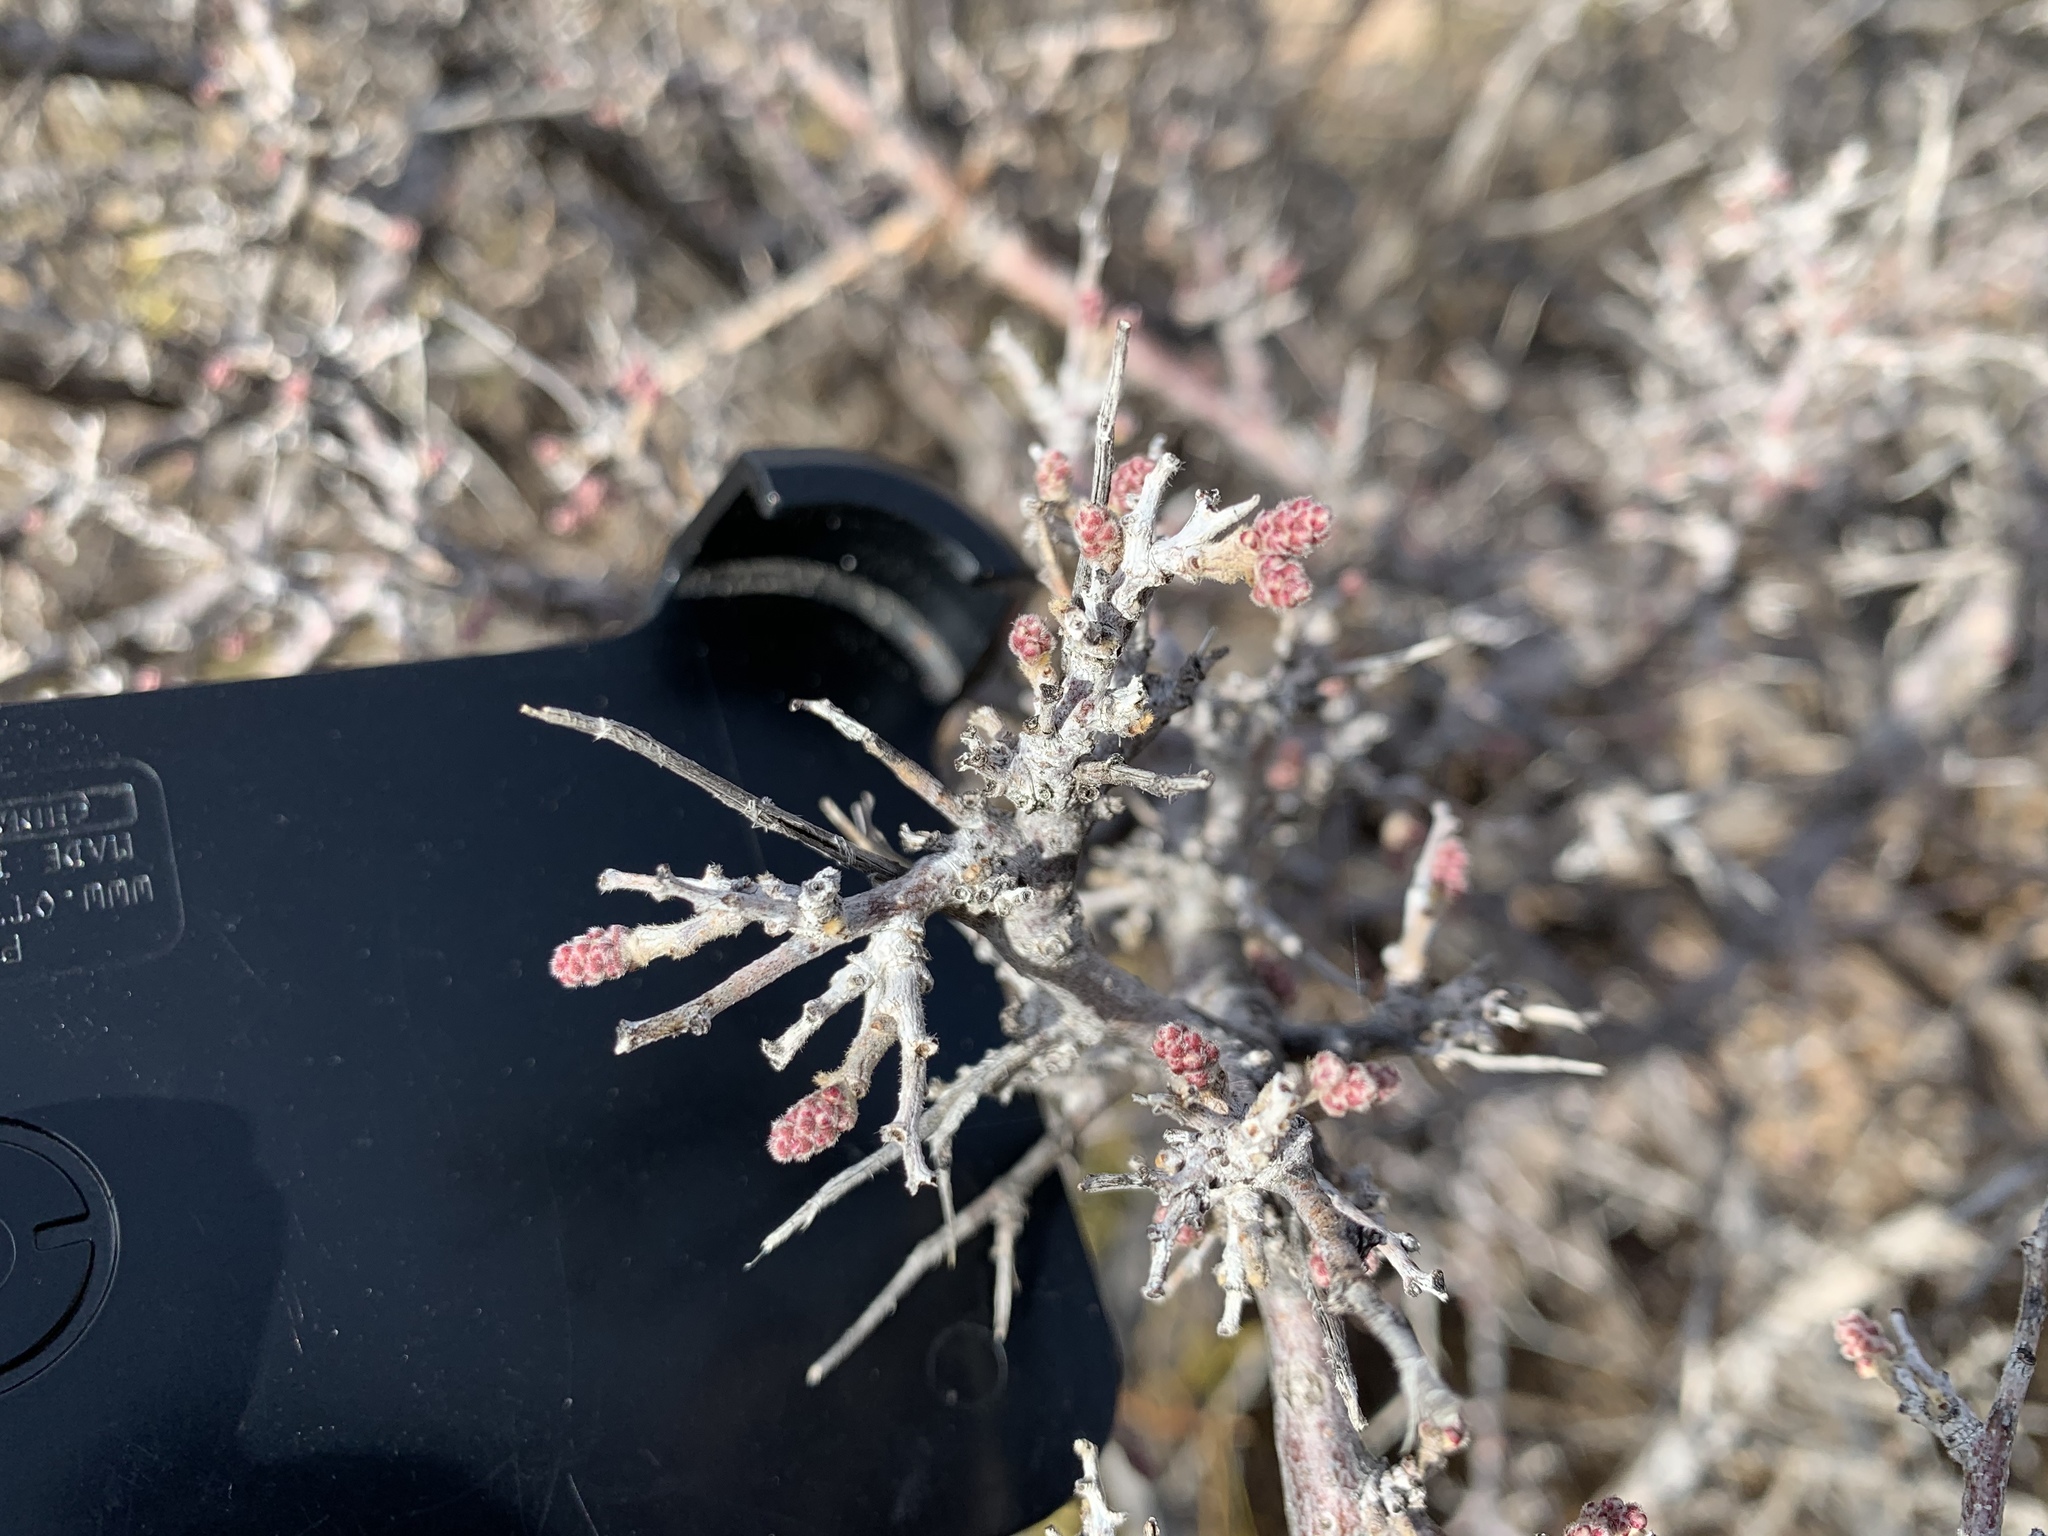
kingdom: Plantae
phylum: Tracheophyta
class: Magnoliopsida
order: Sapindales
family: Anacardiaceae
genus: Rhus
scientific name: Rhus microphylla
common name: Desert sumac
